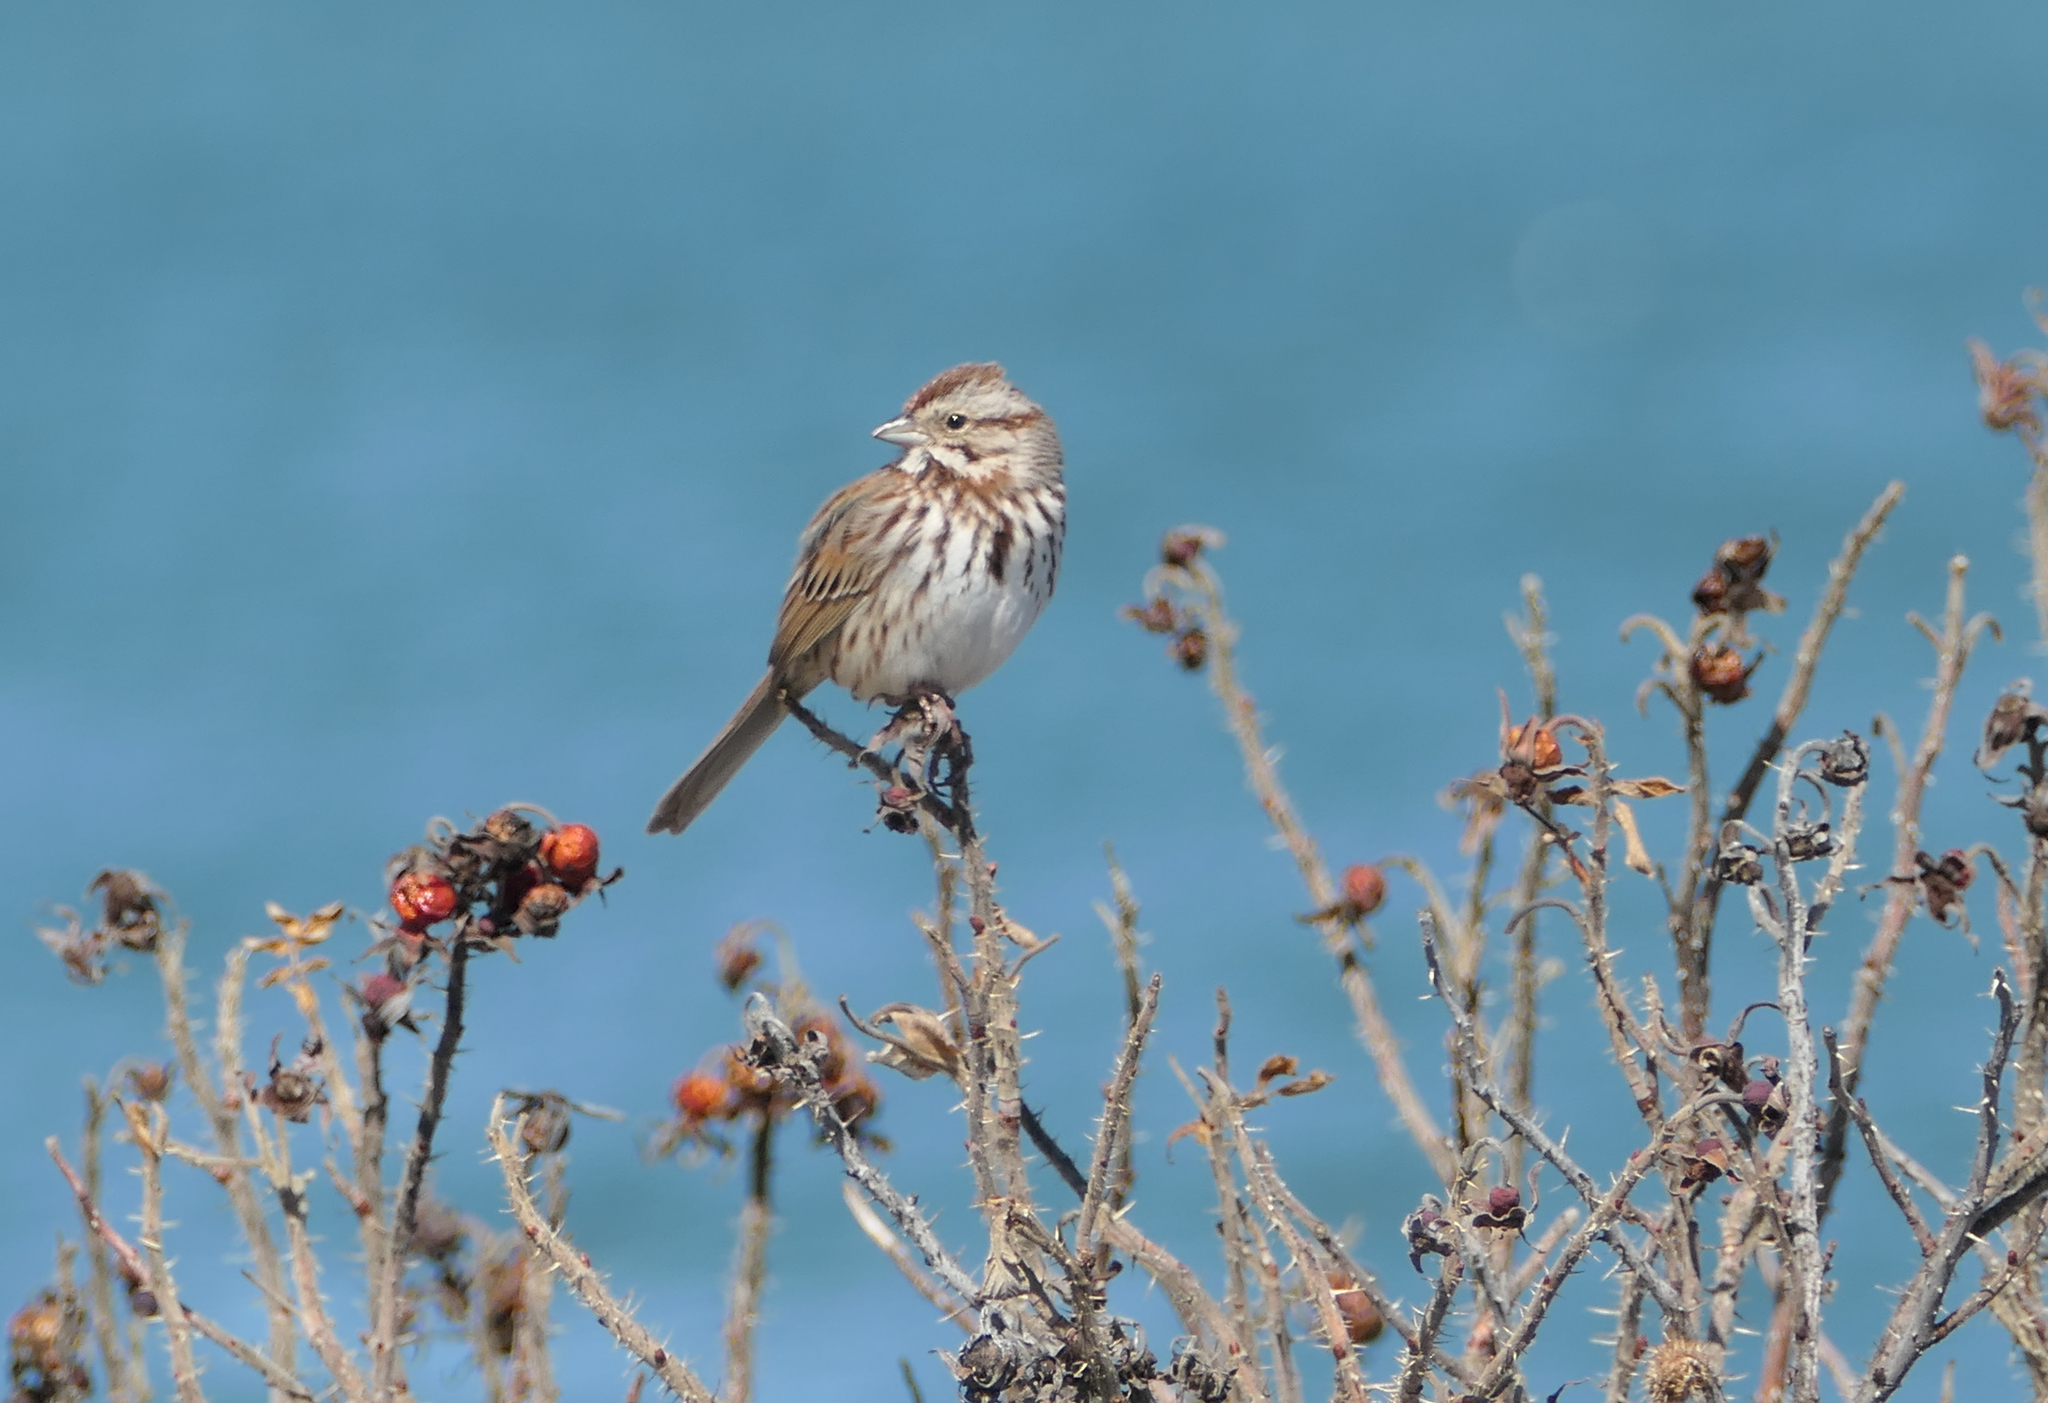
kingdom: Animalia
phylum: Chordata
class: Aves
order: Passeriformes
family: Passerellidae
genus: Melospiza
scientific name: Melospiza melodia
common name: Song sparrow
